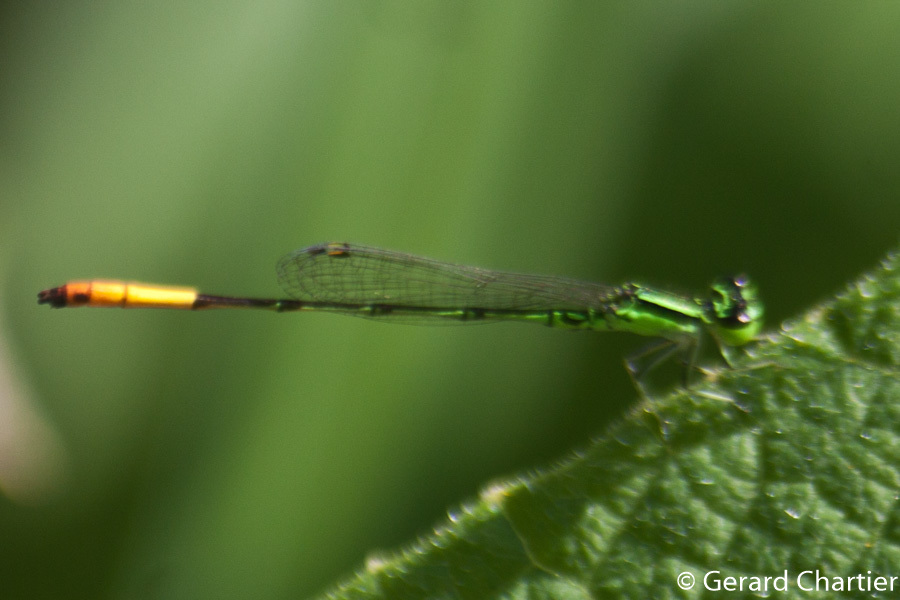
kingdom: Animalia
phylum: Arthropoda
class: Insecta
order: Odonata
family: Coenagrionidae
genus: Agriocnemis
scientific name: Agriocnemis minima
